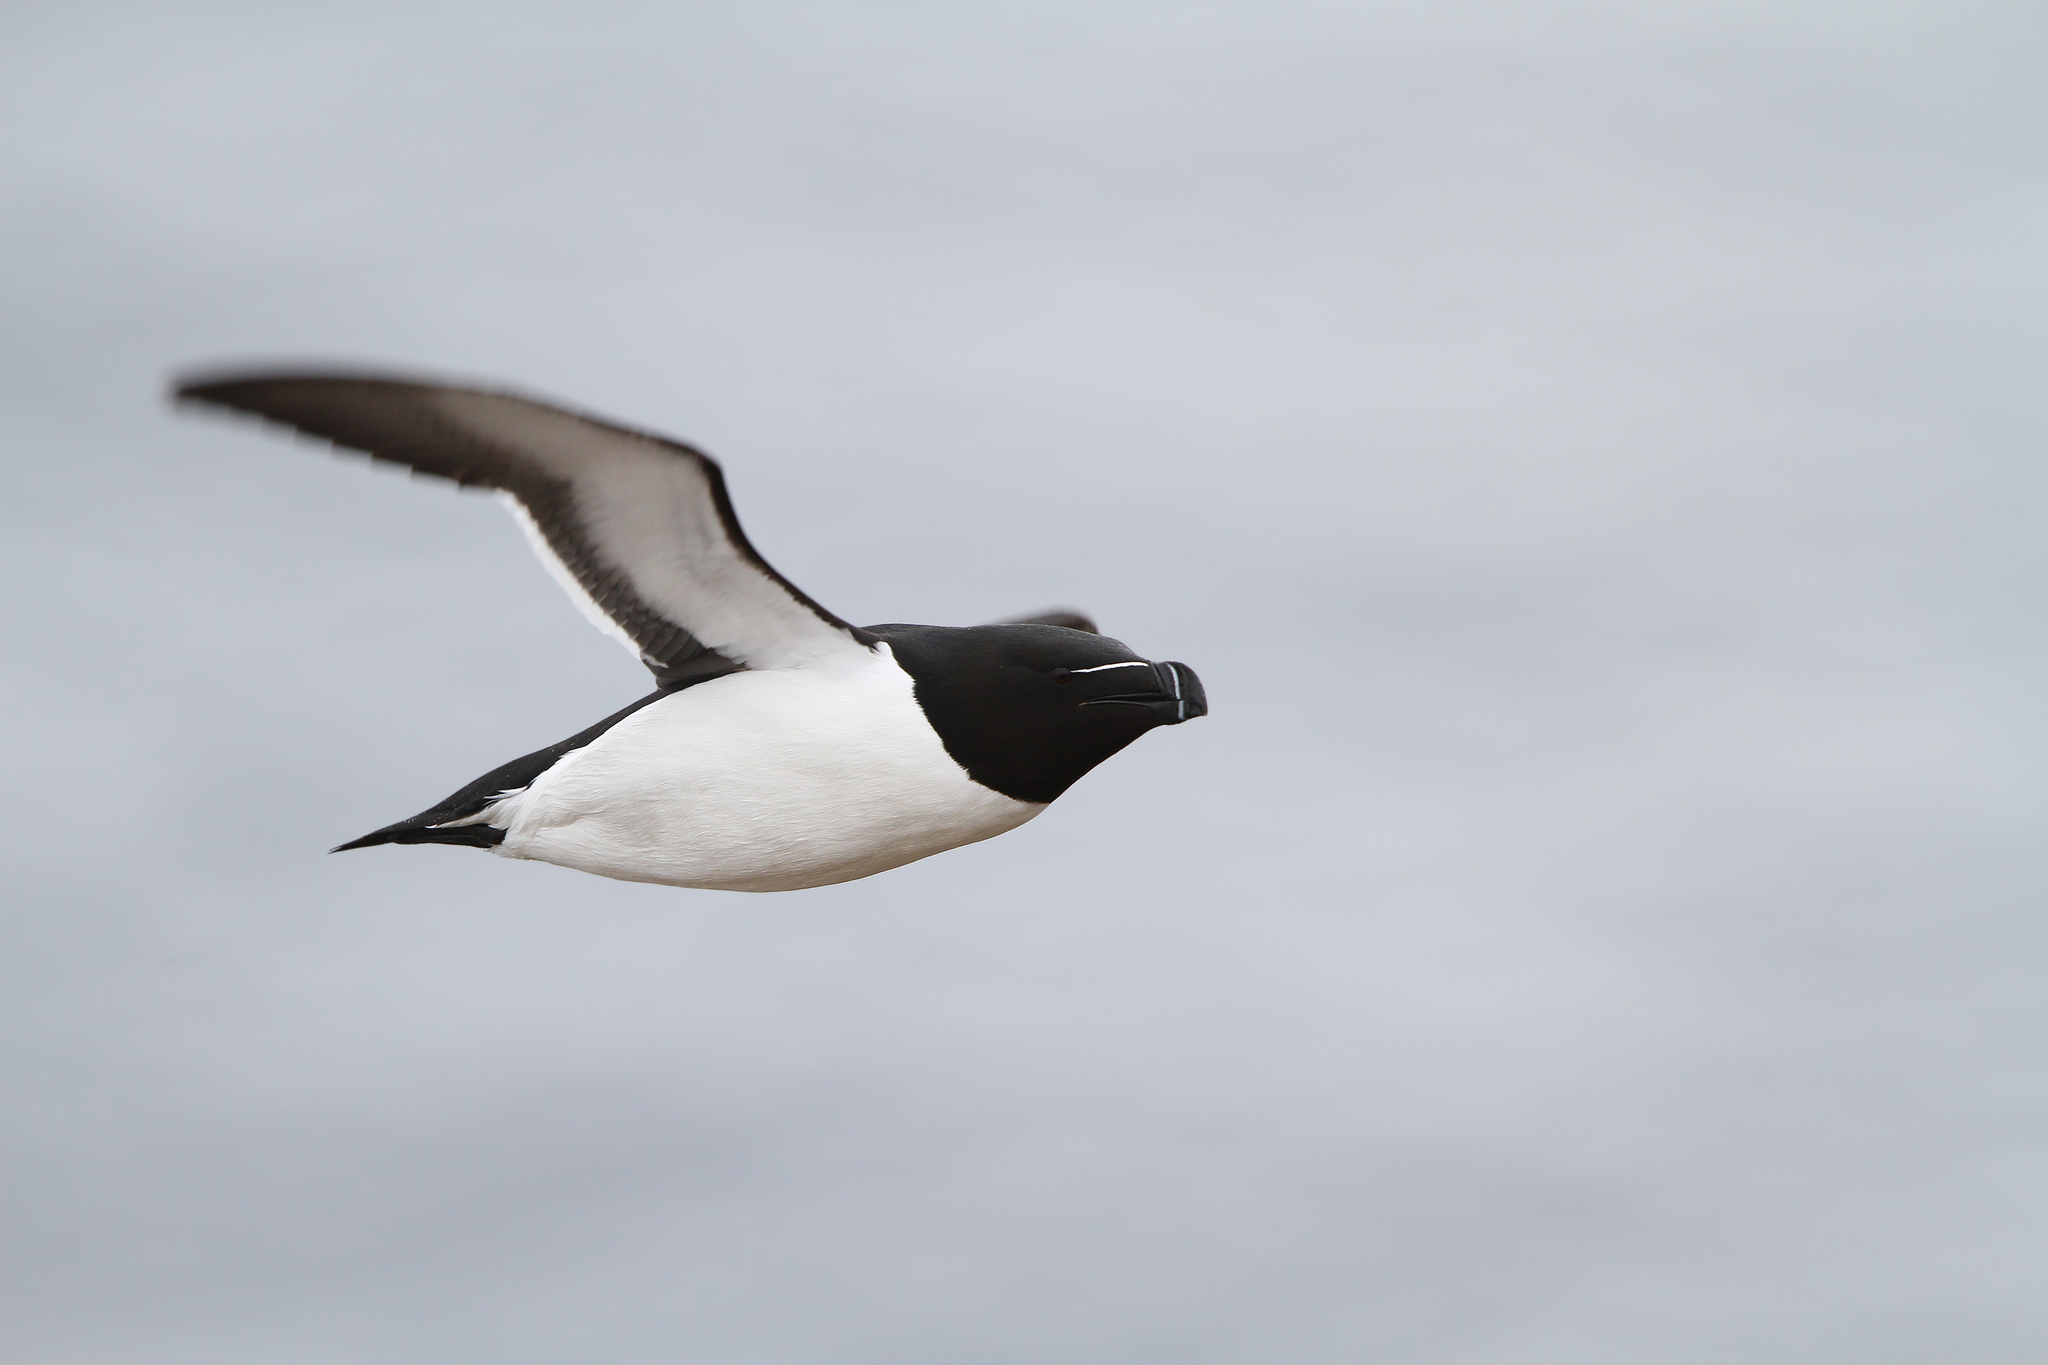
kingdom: Animalia
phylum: Chordata
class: Aves
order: Charadriiformes
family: Alcidae
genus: Alca
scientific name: Alca torda
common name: Razorbill
